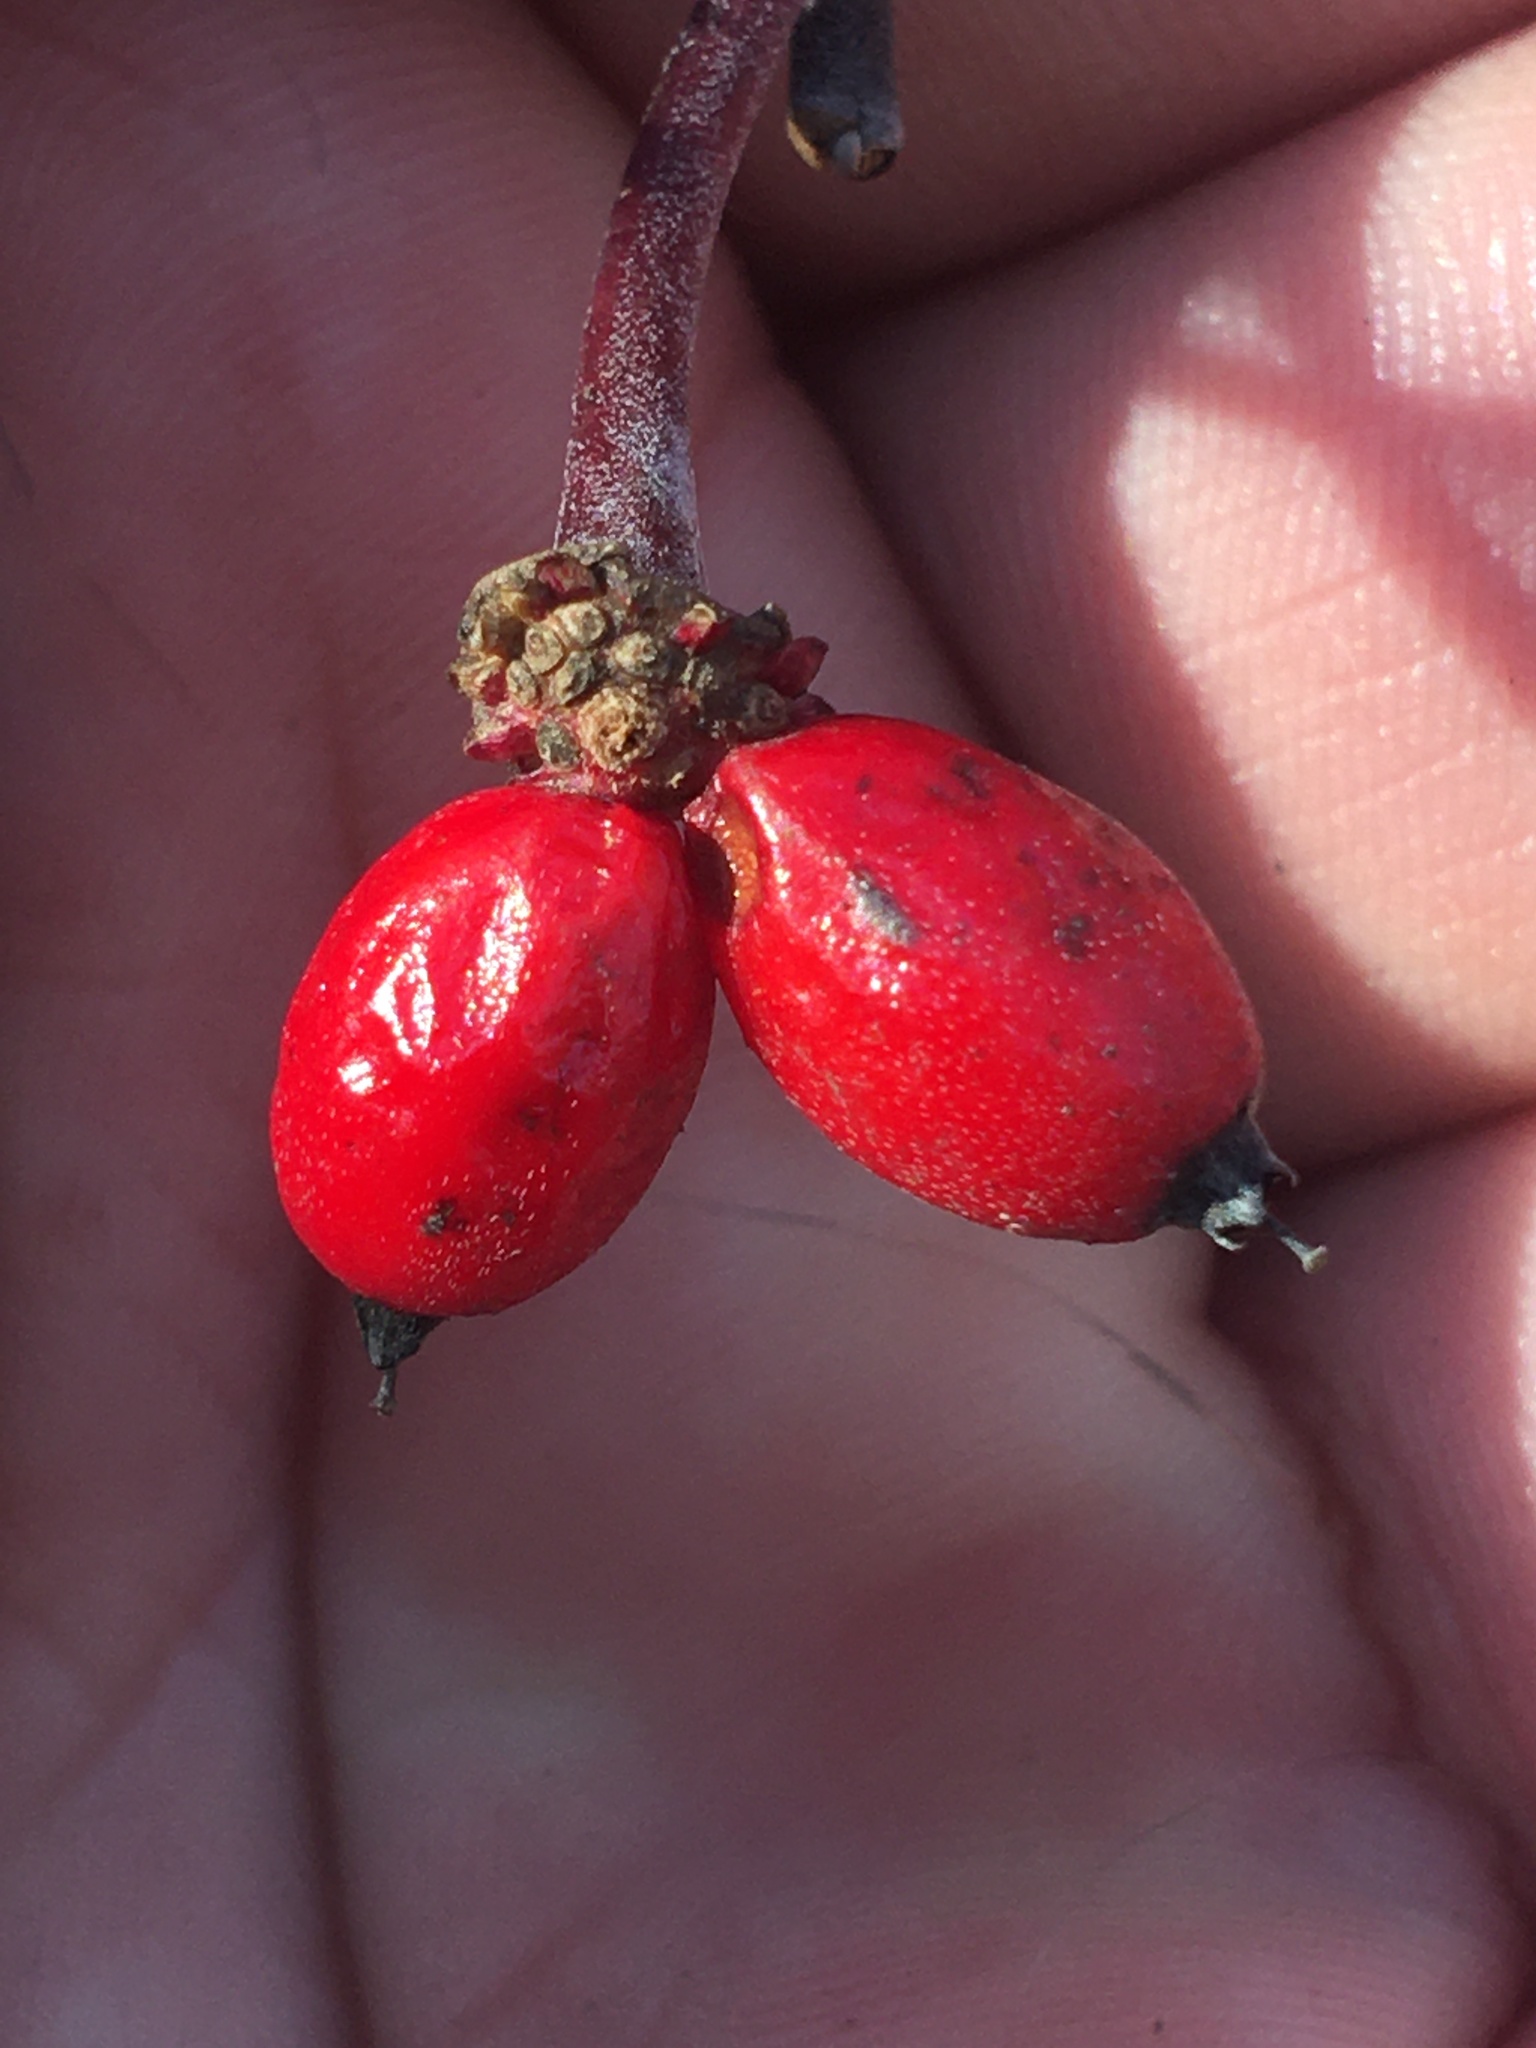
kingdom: Plantae
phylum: Tracheophyta
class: Magnoliopsida
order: Cornales
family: Cornaceae
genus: Cornus
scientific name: Cornus florida
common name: Flowering dogwood
